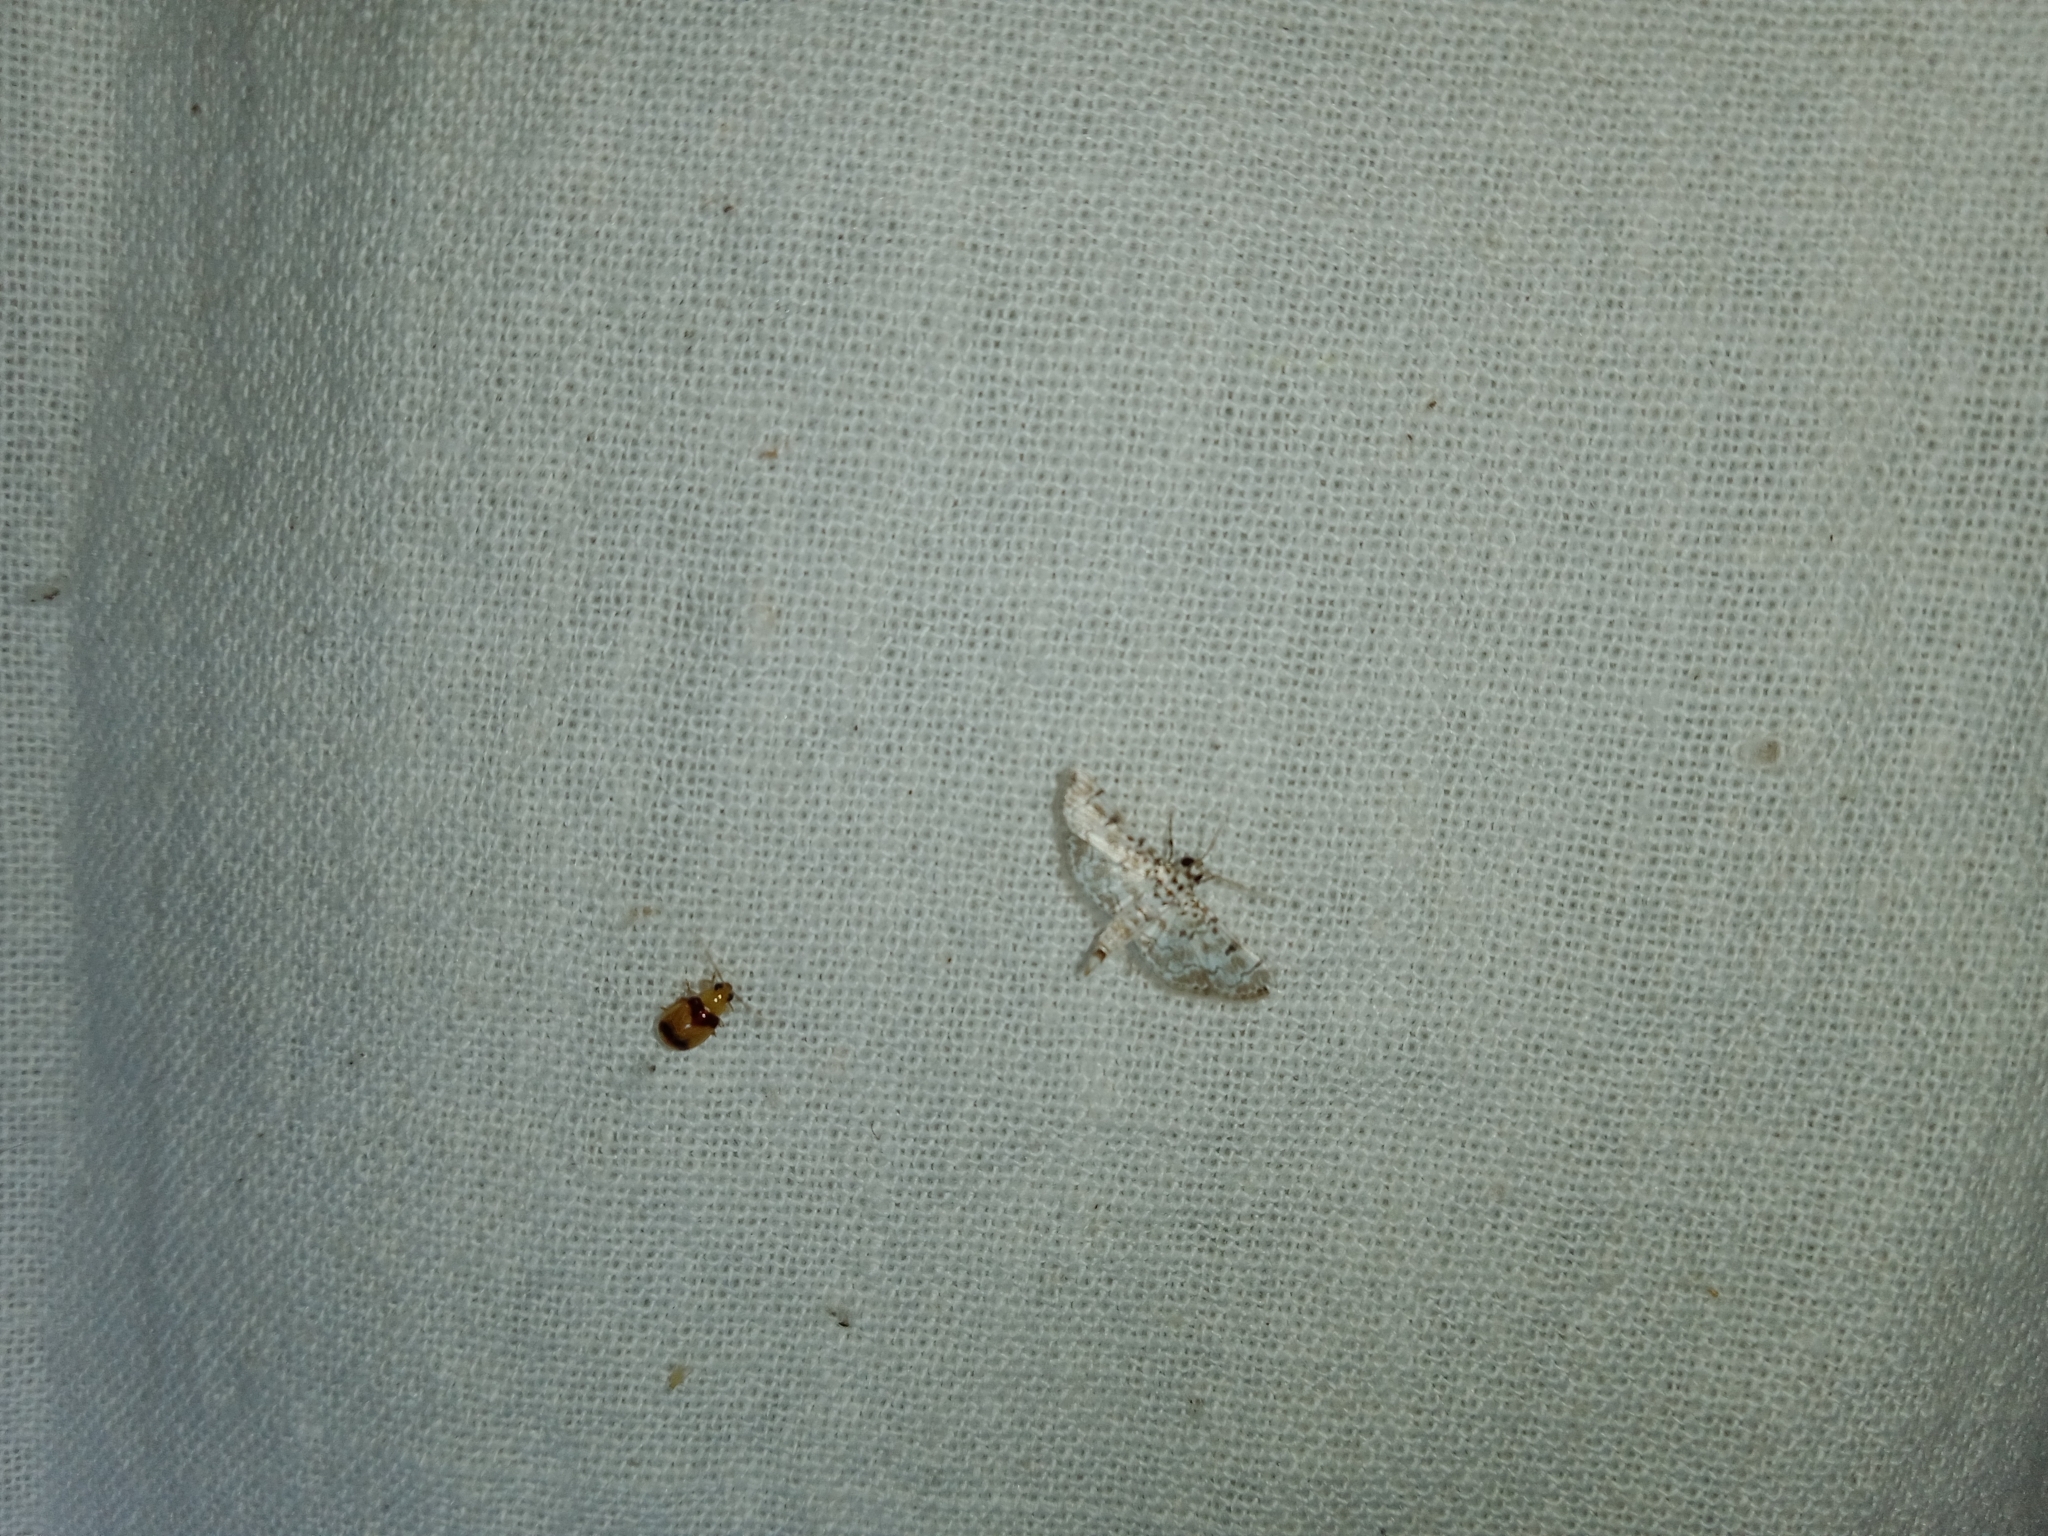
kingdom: Animalia
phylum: Arthropoda
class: Insecta
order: Lepidoptera
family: Crambidae
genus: Metoeca
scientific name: Metoeca foedalis
